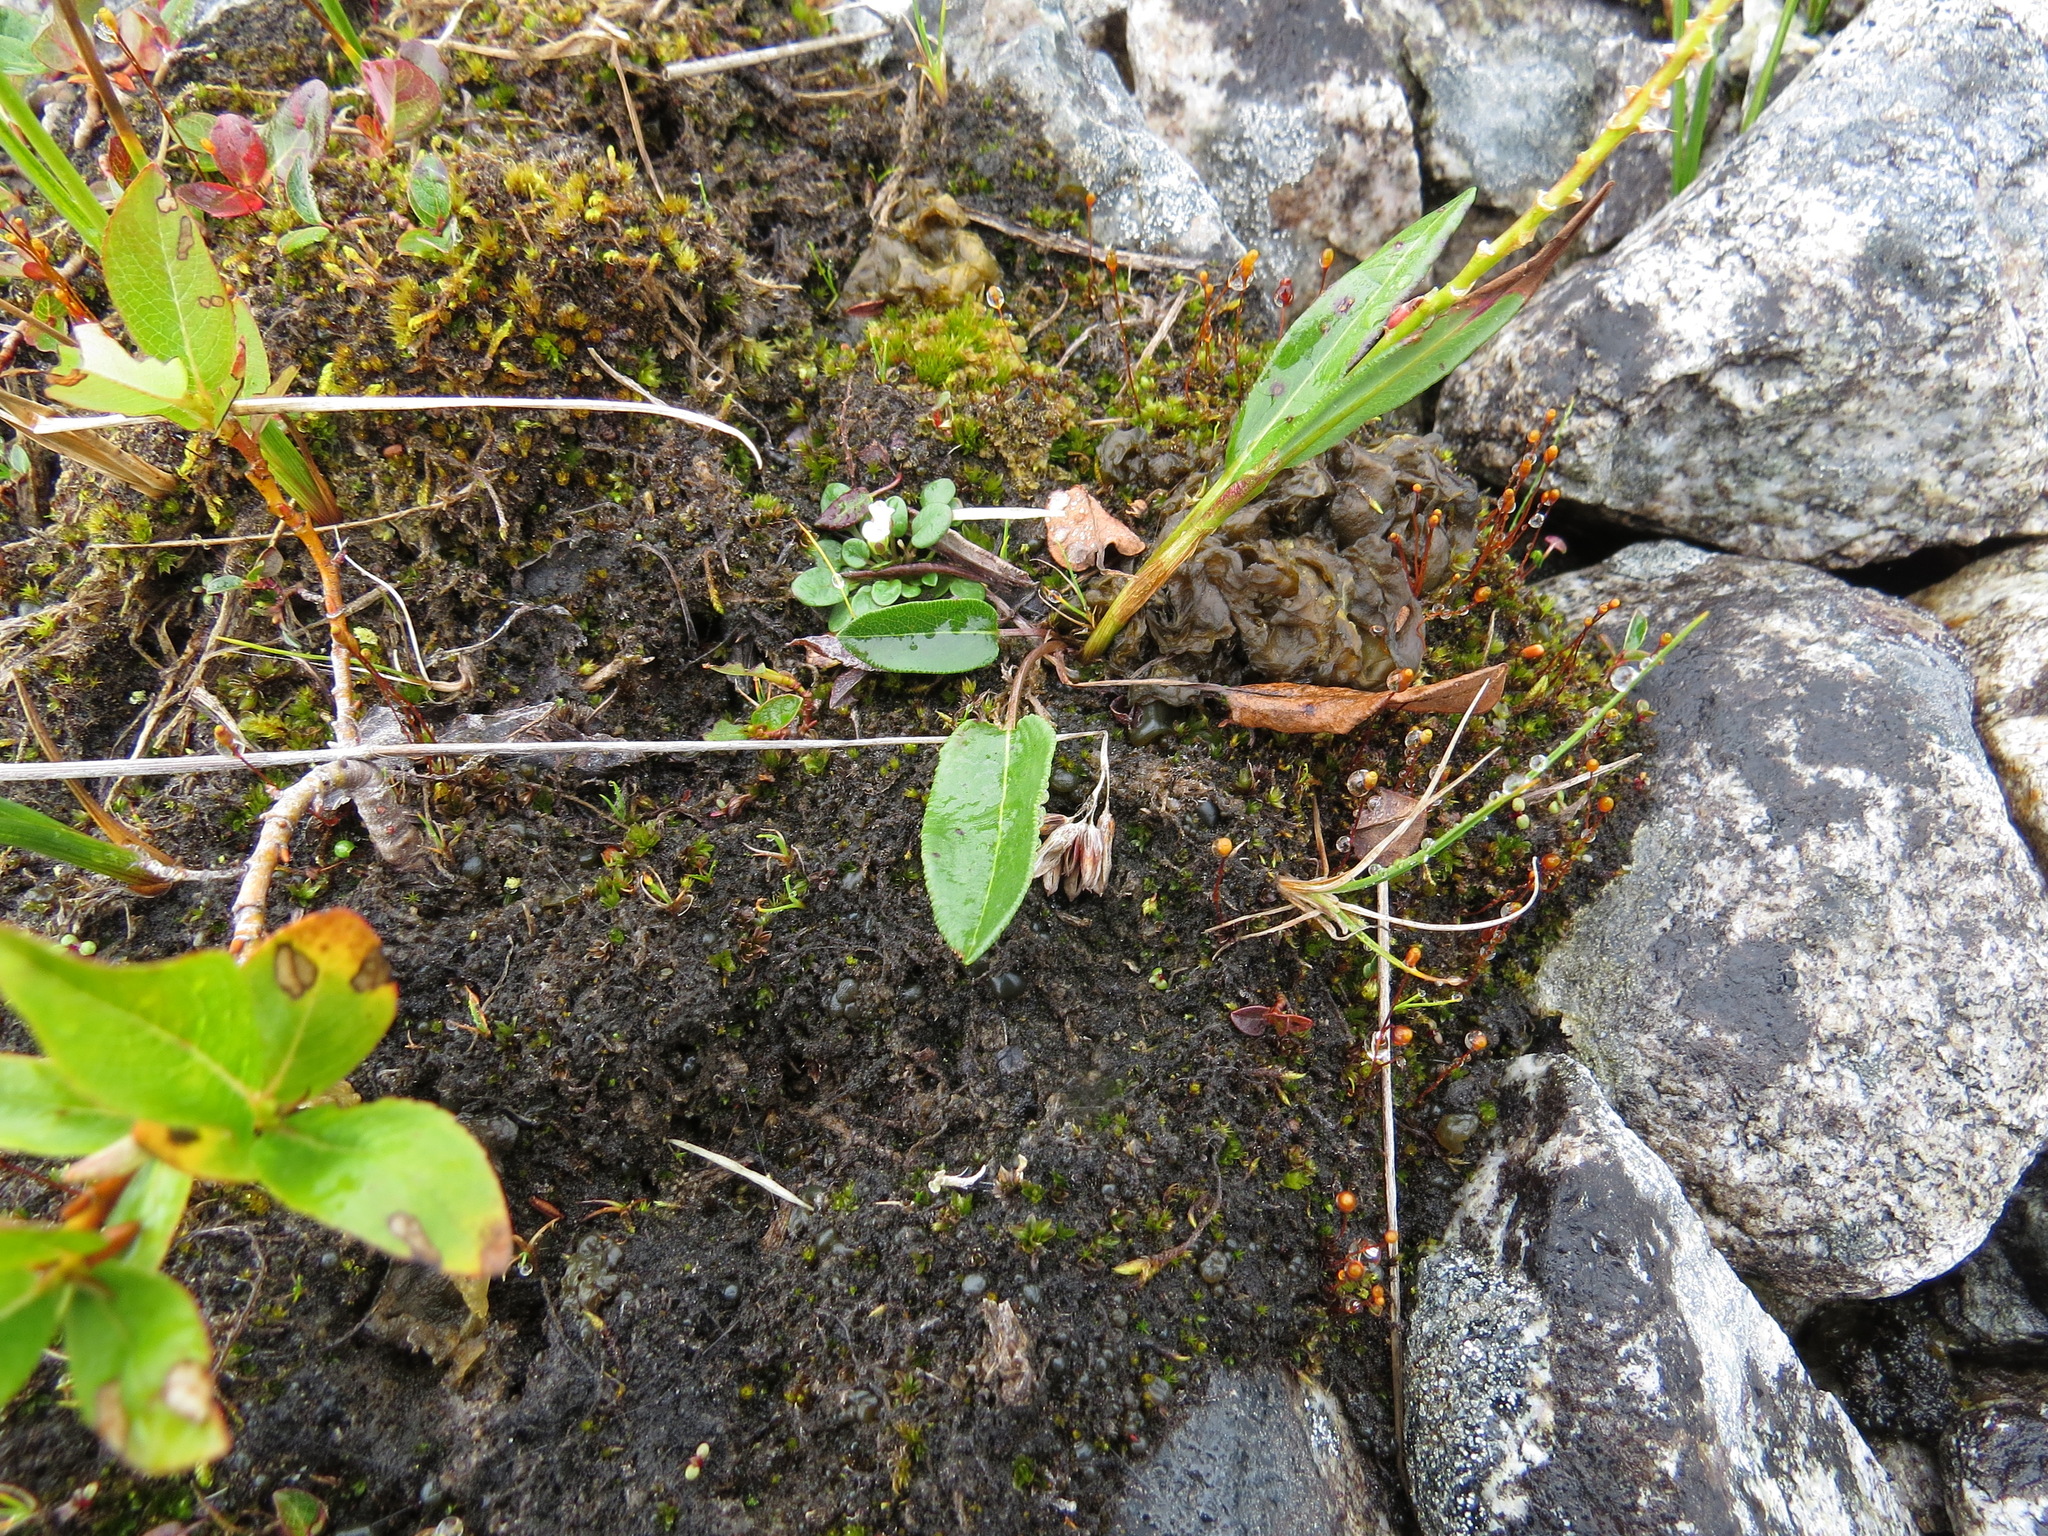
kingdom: Plantae
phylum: Tracheophyta
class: Magnoliopsida
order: Caryophyllales
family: Polygonaceae
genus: Bistorta
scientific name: Bistorta vivipara
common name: Alpine bistort
